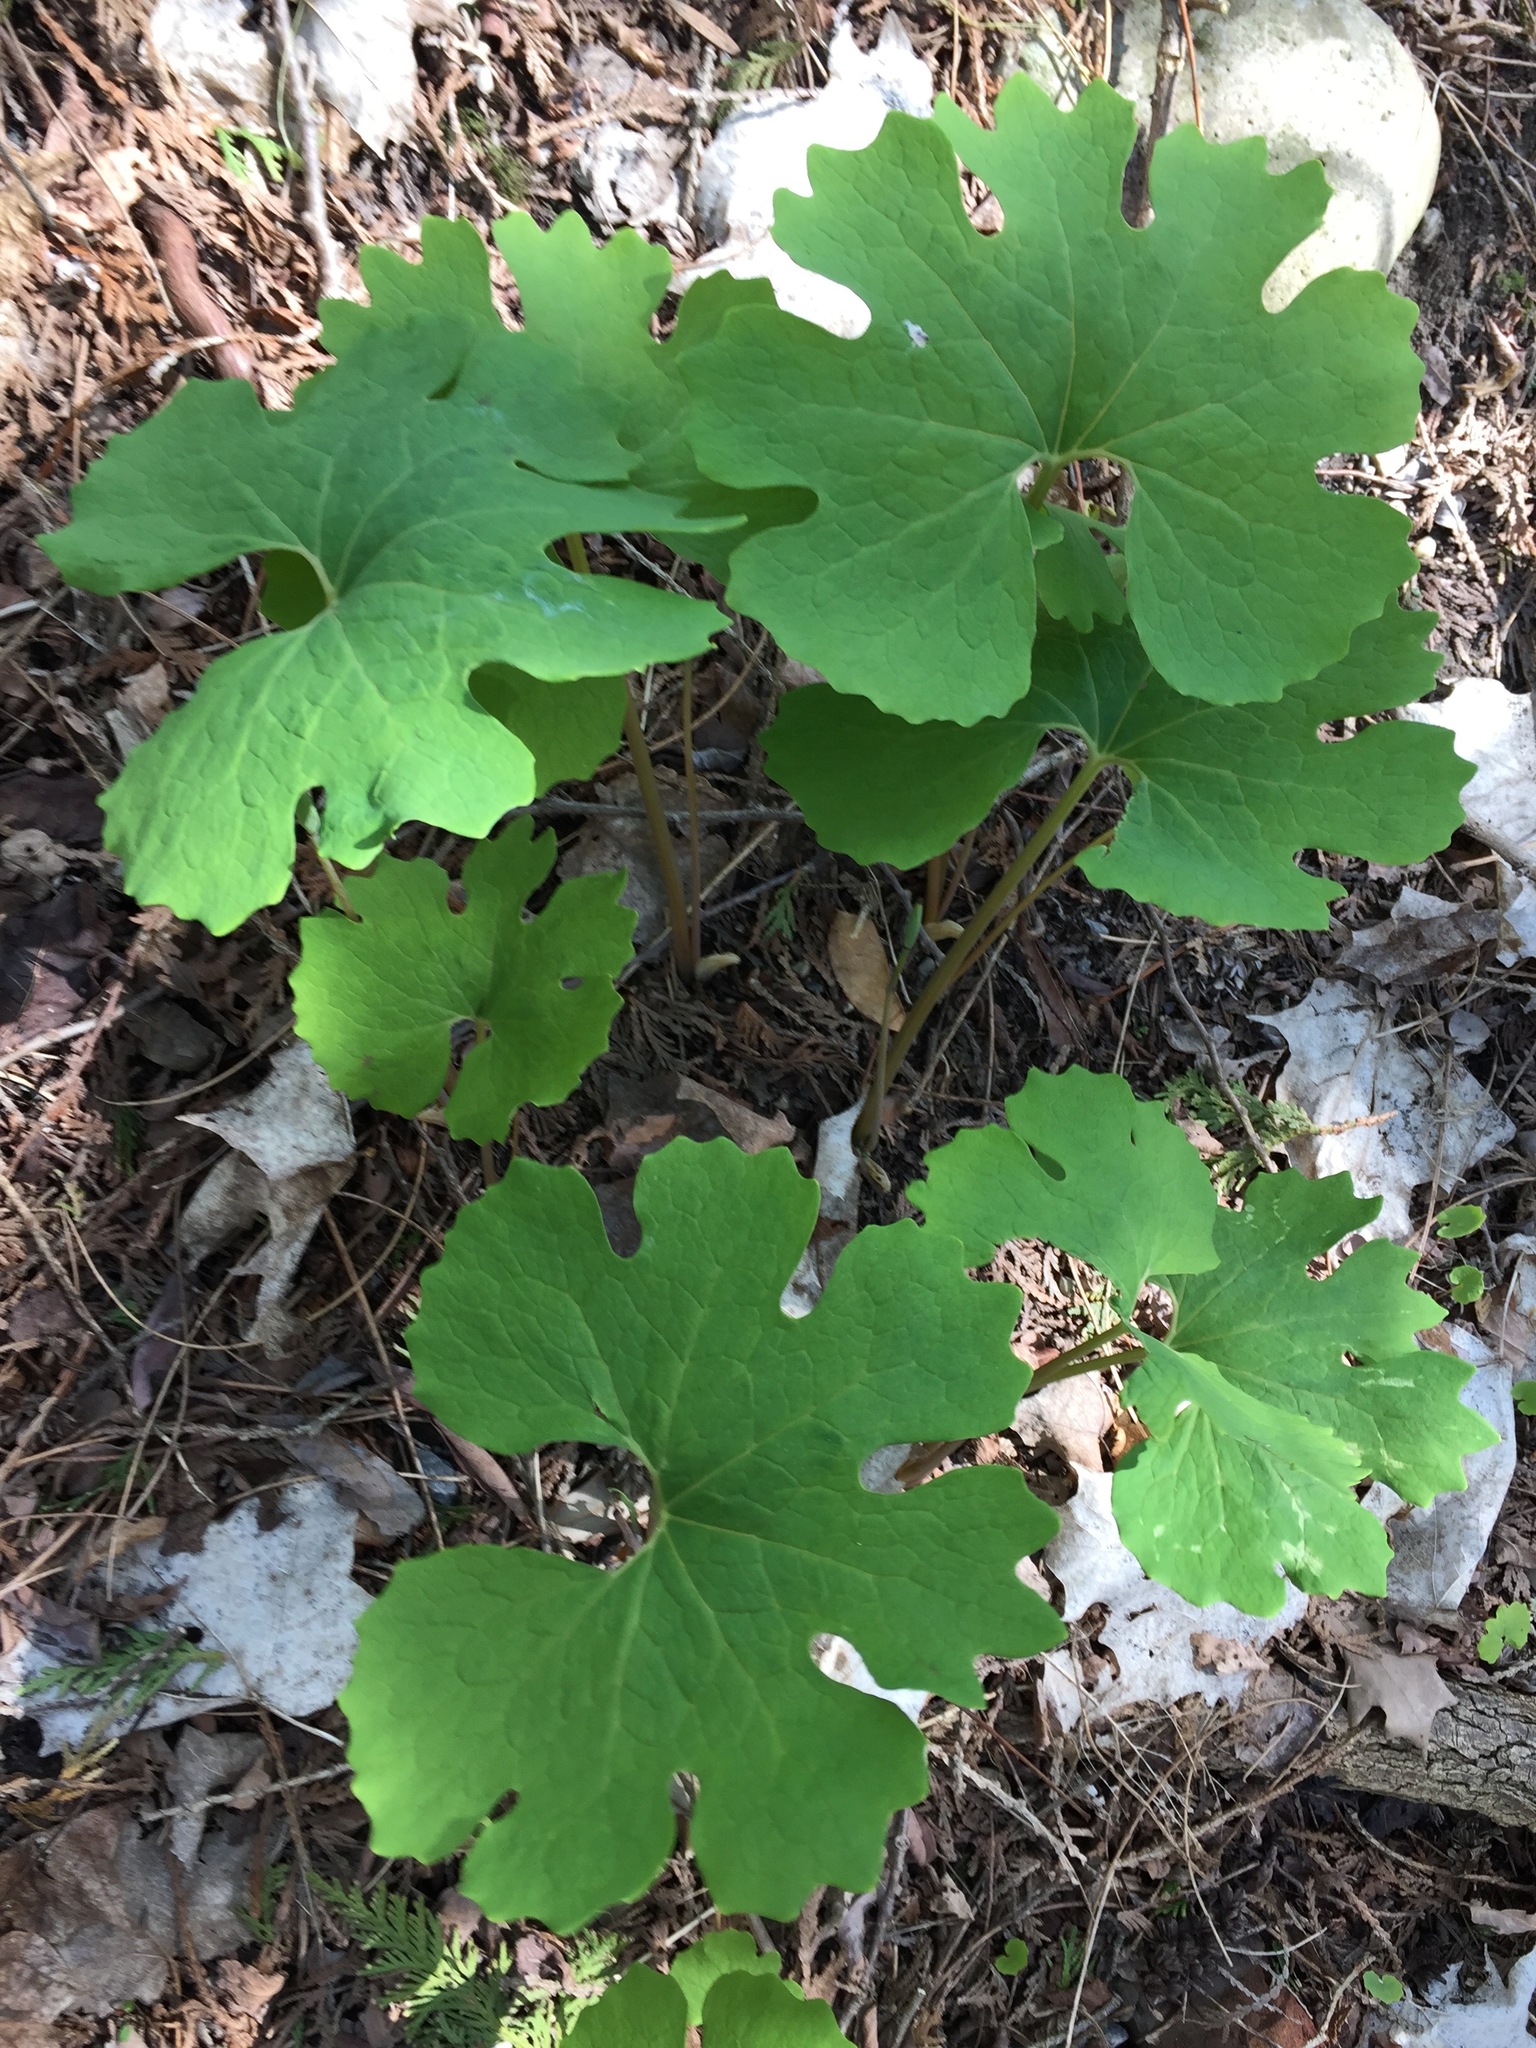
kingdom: Plantae
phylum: Tracheophyta
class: Magnoliopsida
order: Ranunculales
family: Papaveraceae
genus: Sanguinaria
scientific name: Sanguinaria canadensis
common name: Bloodroot
